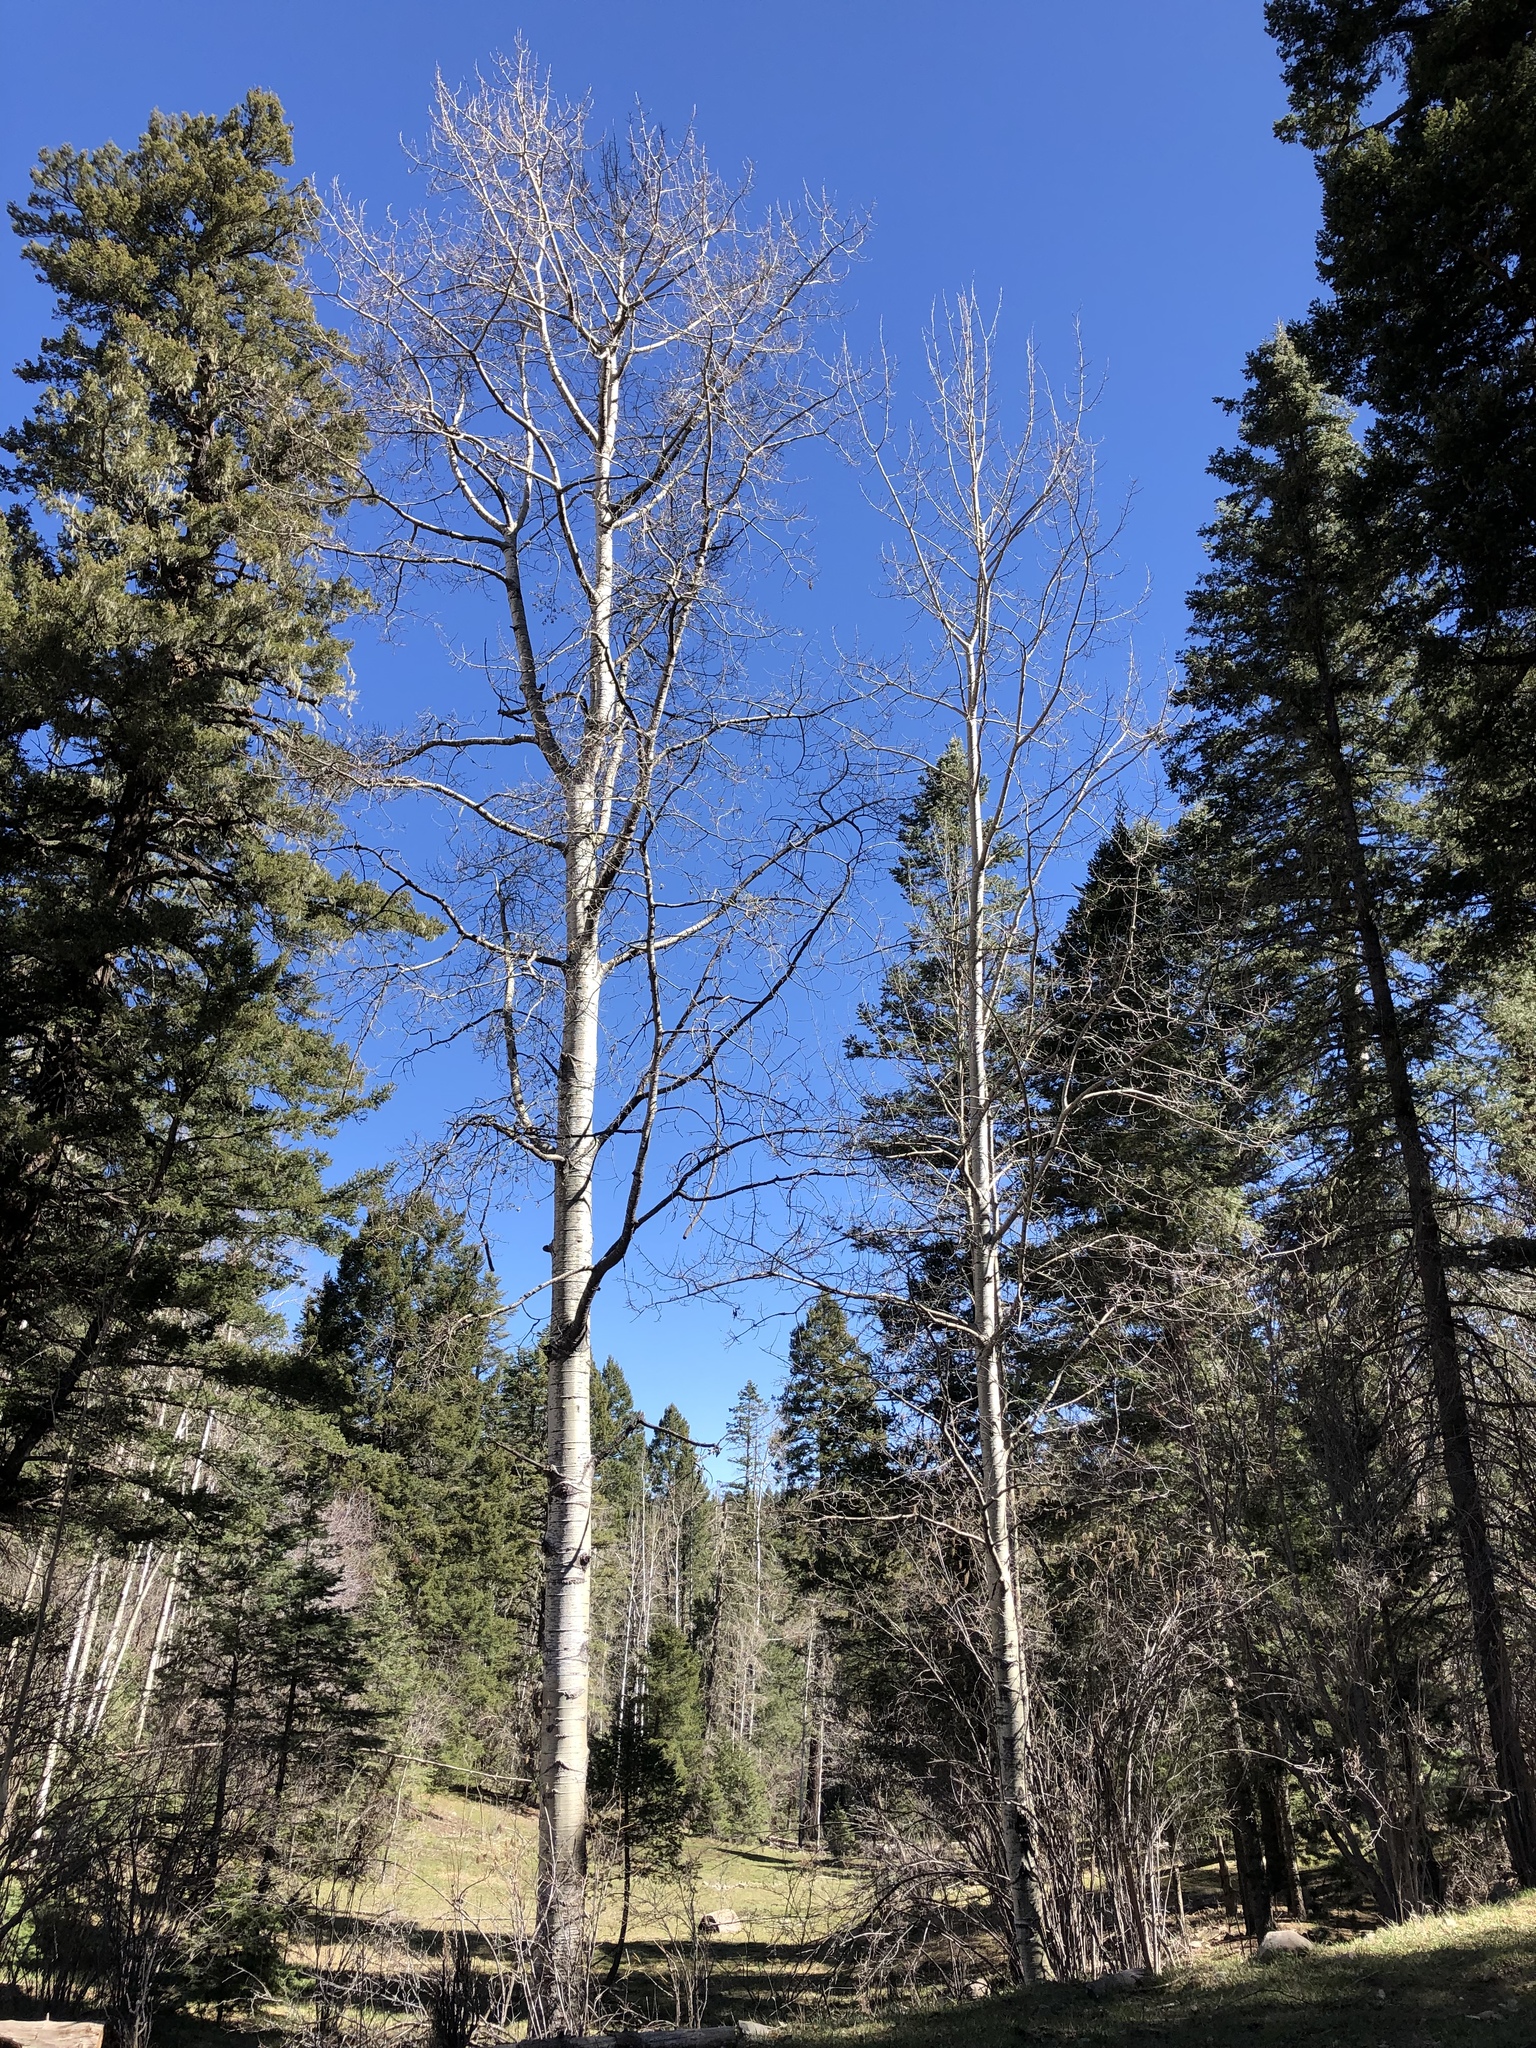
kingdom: Plantae
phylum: Tracheophyta
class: Magnoliopsida
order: Malpighiales
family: Salicaceae
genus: Populus
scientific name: Populus tremuloides
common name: Quaking aspen
